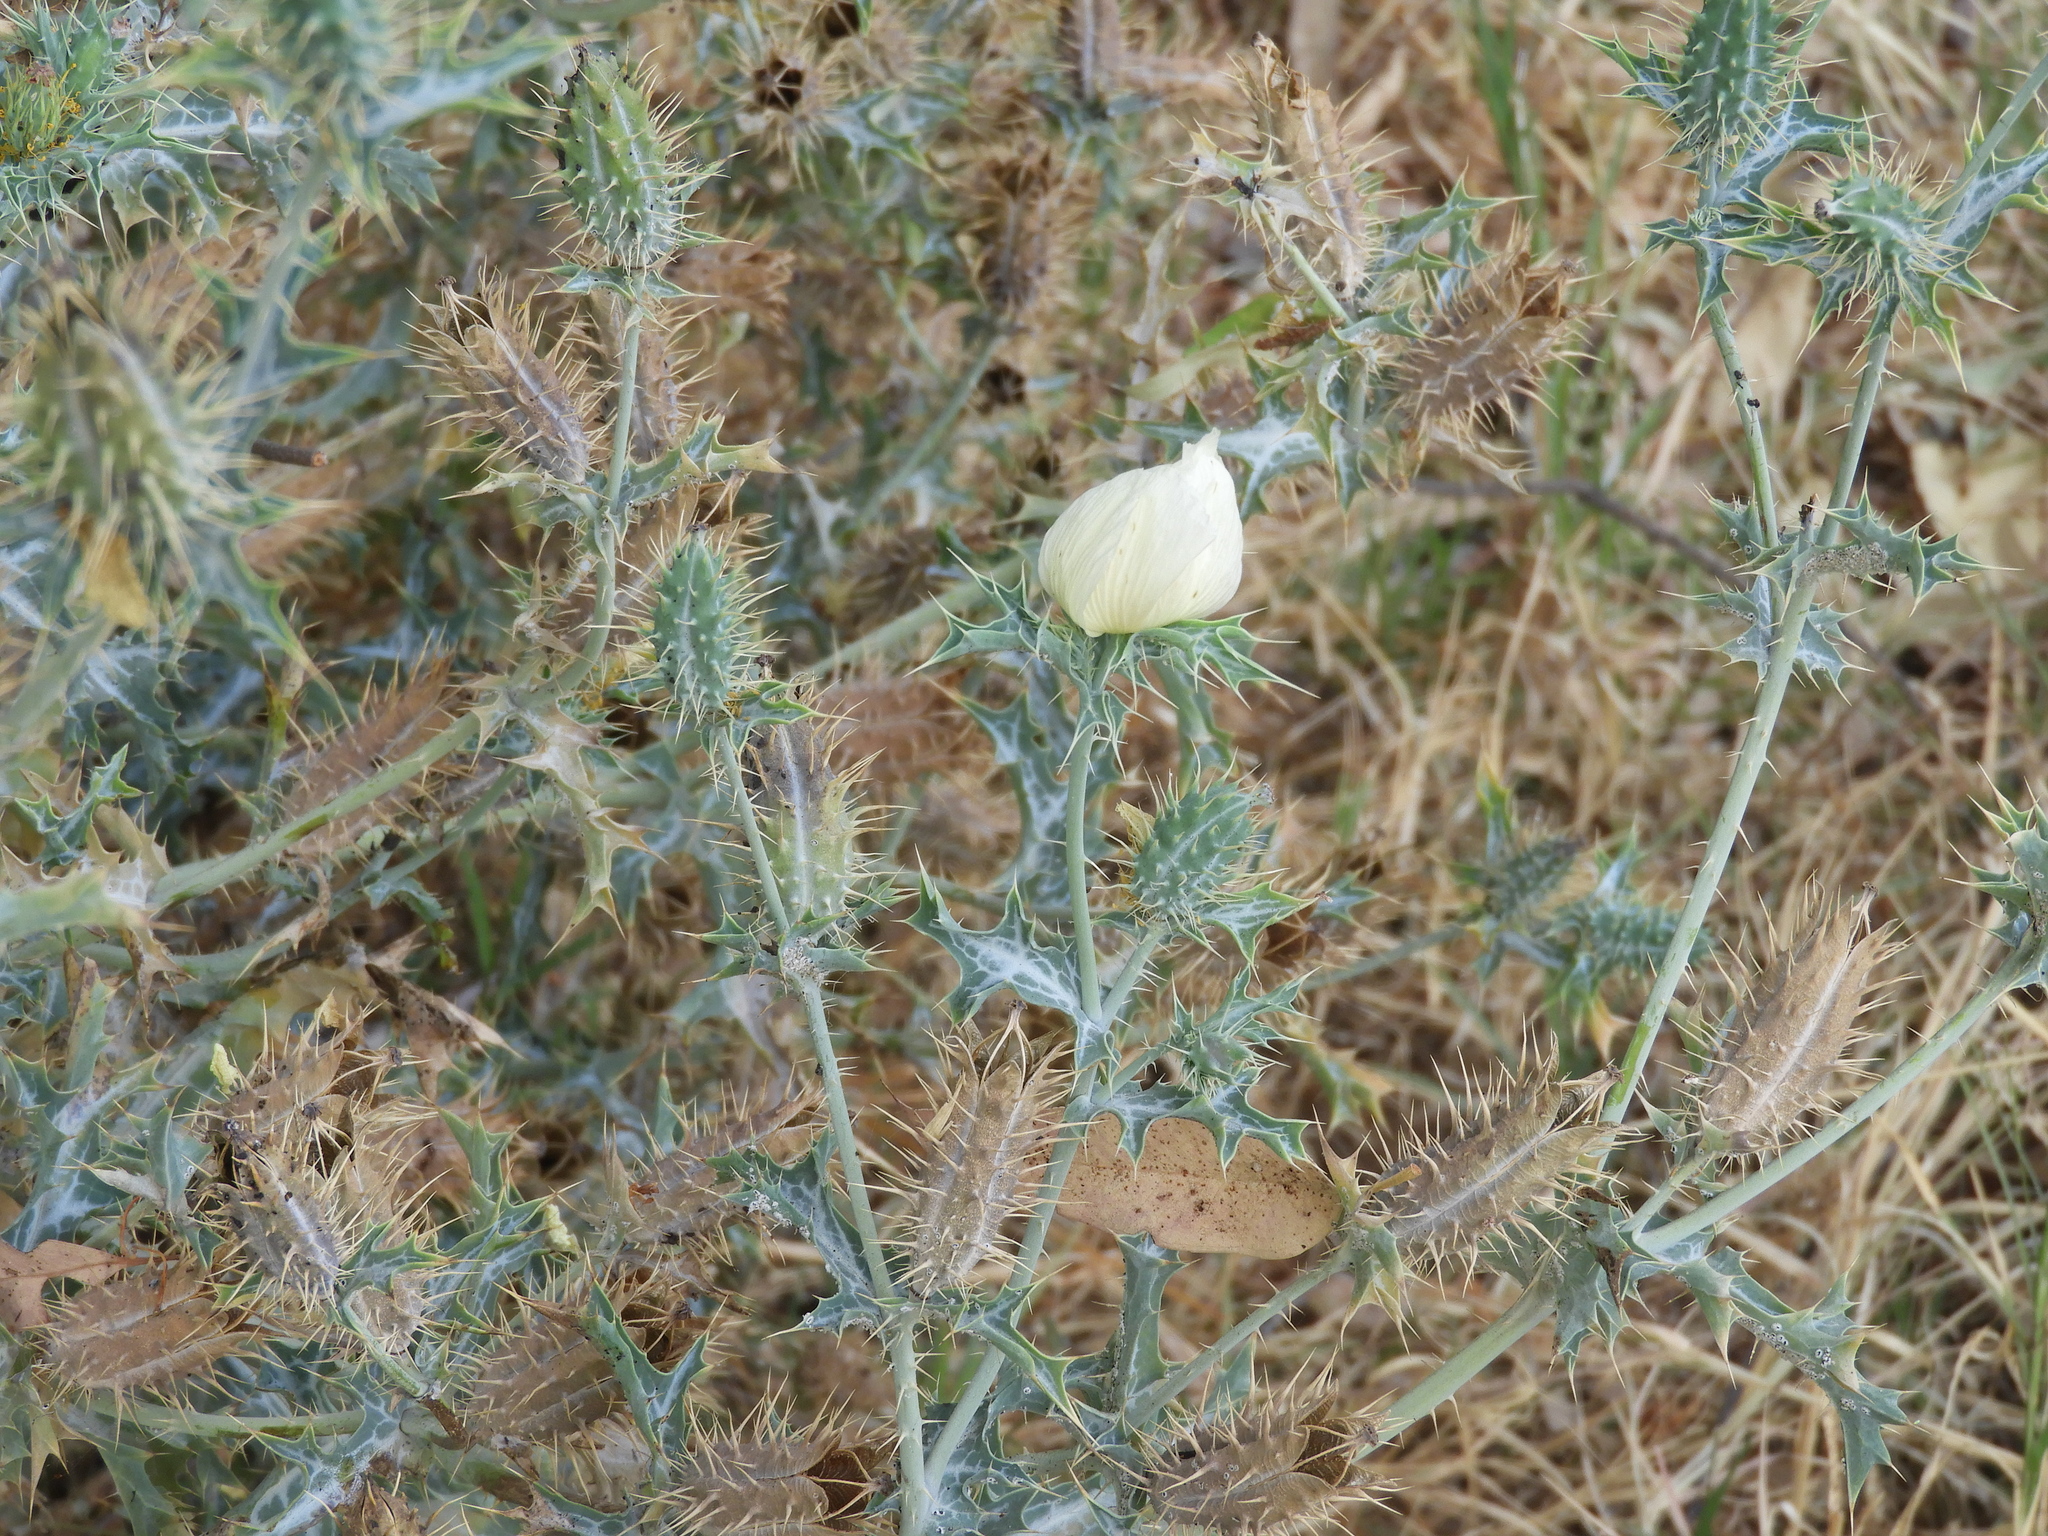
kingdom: Plantae
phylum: Tracheophyta
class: Magnoliopsida
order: Ranunculales
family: Papaveraceae
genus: Argemone
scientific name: Argemone ochroleuca
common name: White-flower mexican-poppy
